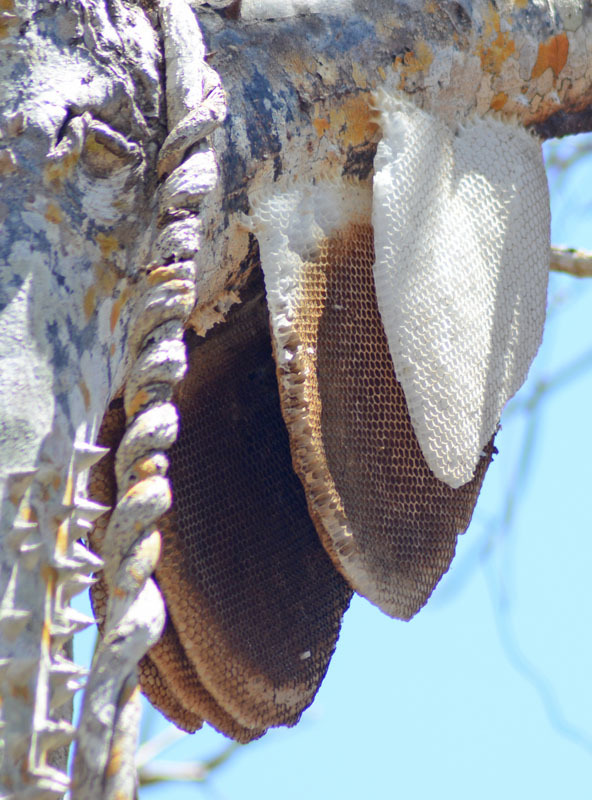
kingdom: Animalia
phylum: Arthropoda
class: Insecta
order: Hymenoptera
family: Apidae
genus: Apis
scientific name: Apis mellifera
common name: Honey bee
